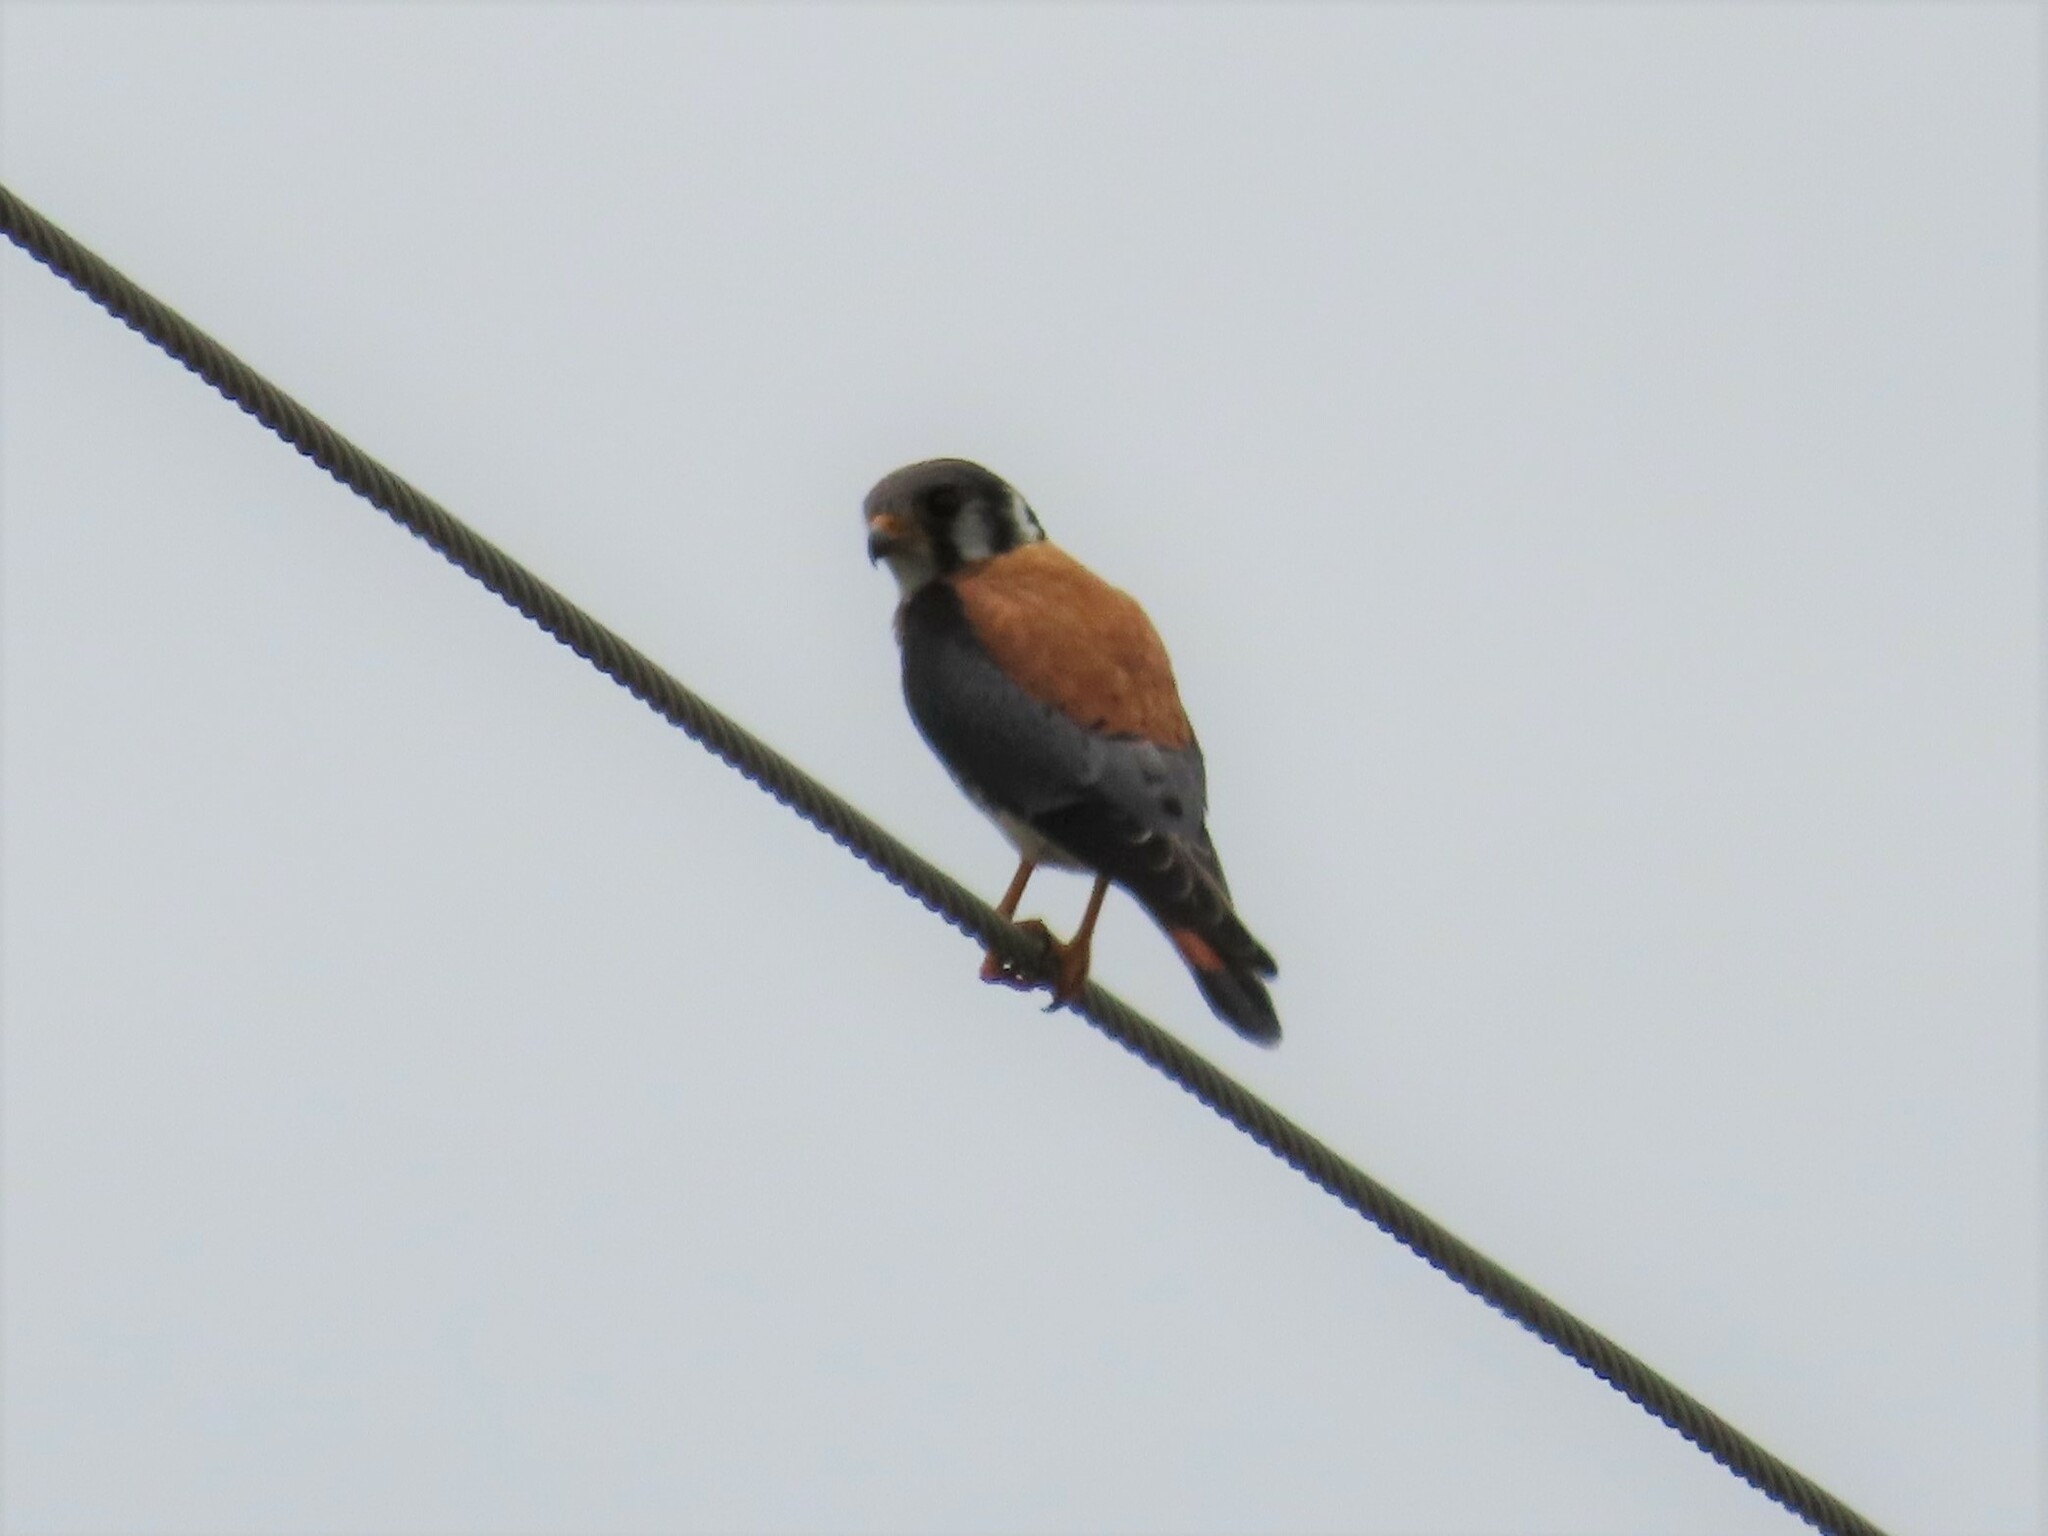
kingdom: Animalia
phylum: Chordata
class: Aves
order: Falconiformes
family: Falconidae
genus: Falco
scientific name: Falco sparverius
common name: American kestrel
